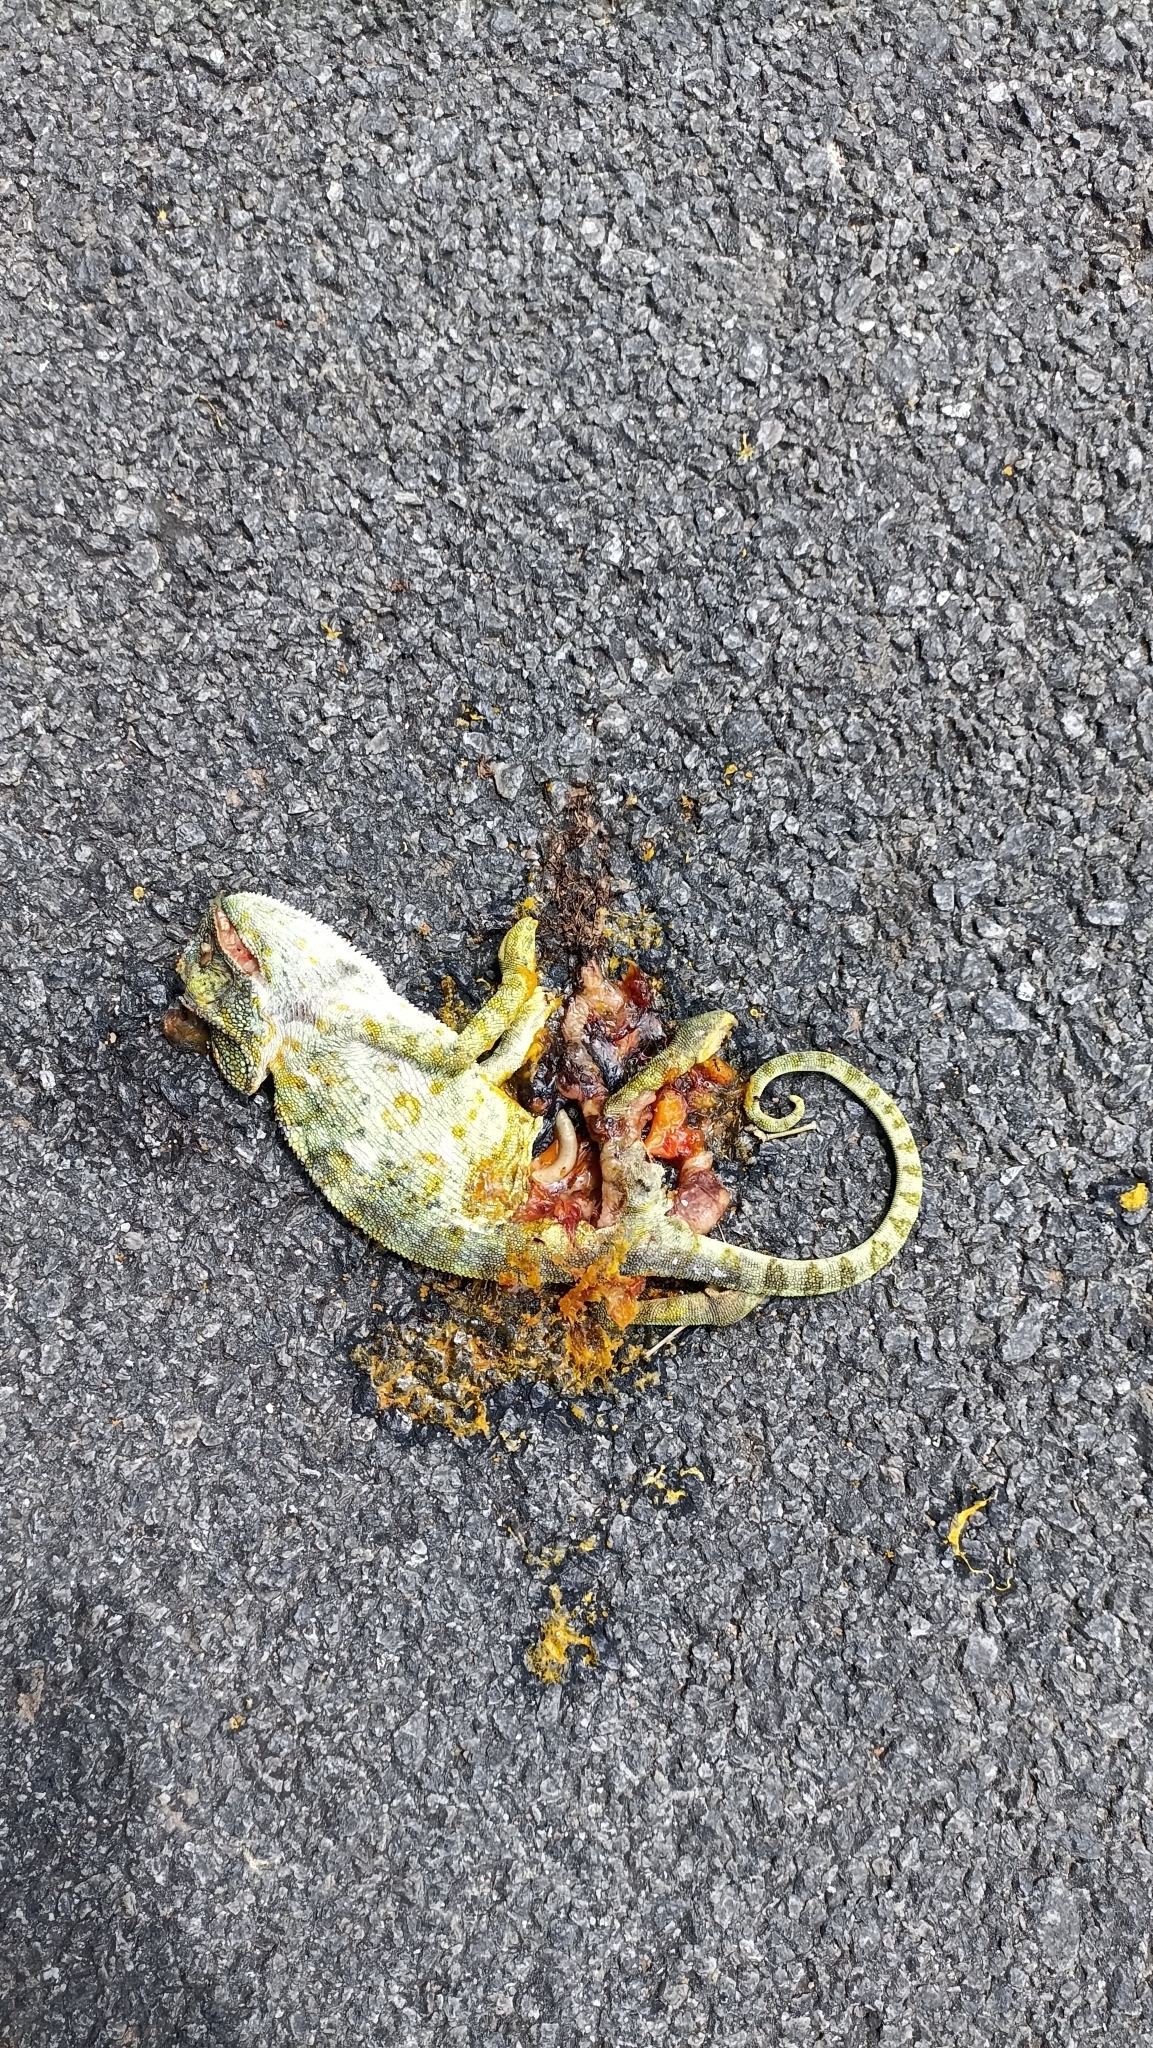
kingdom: Animalia
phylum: Chordata
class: Squamata
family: Chamaeleonidae
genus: Chamaeleo
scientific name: Chamaeleo zeylanicus
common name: Indian chameleon
